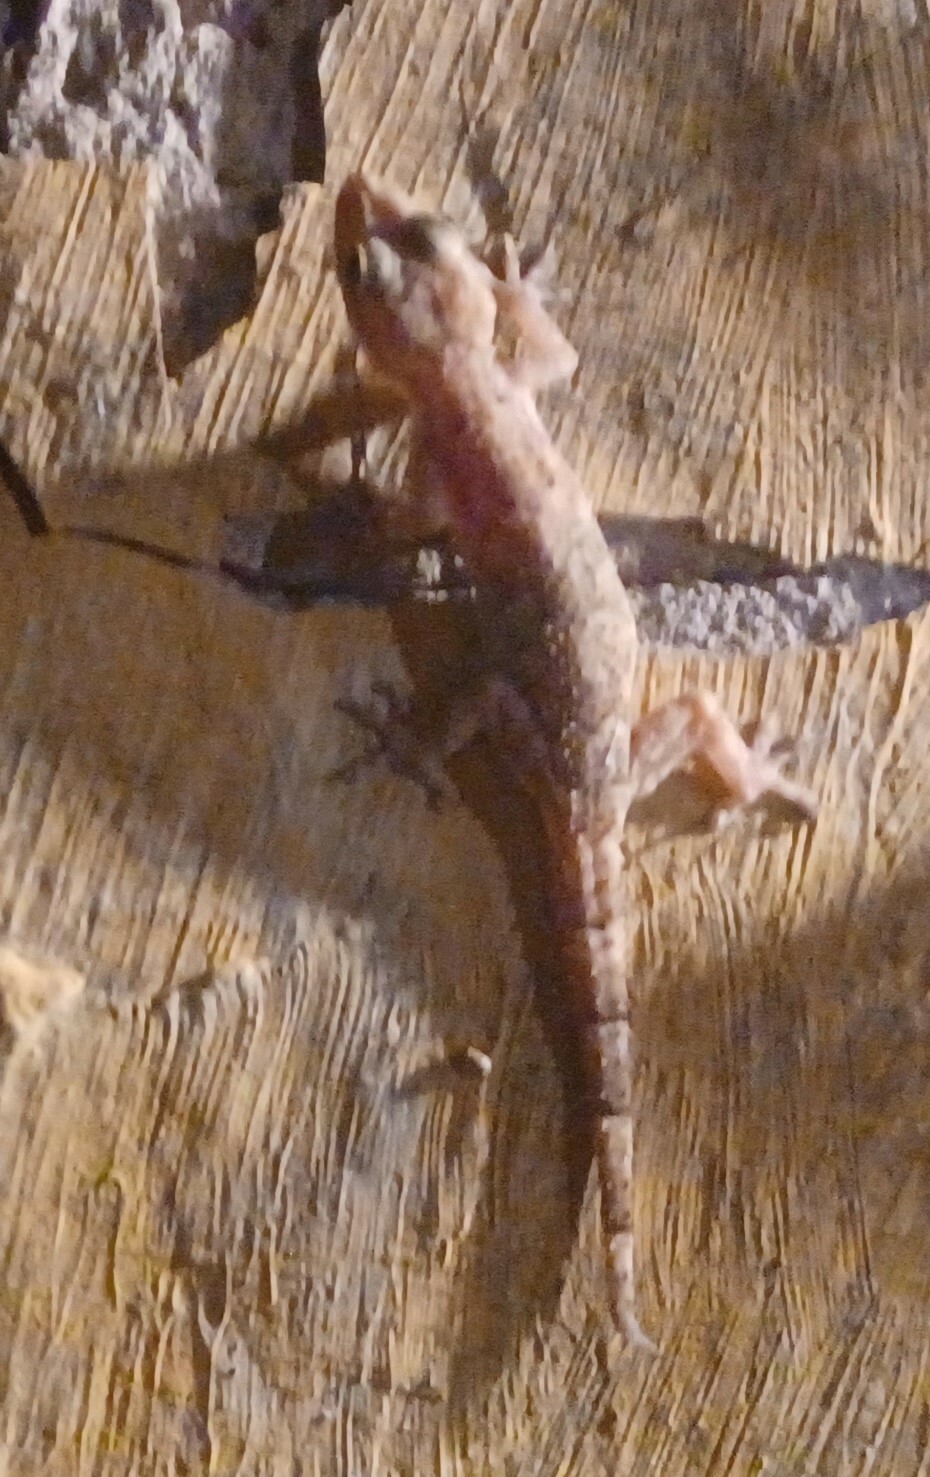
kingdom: Animalia
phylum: Chordata
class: Squamata
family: Gekkonidae
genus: Hemidactylus
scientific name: Hemidactylus mabouia
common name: House gecko
